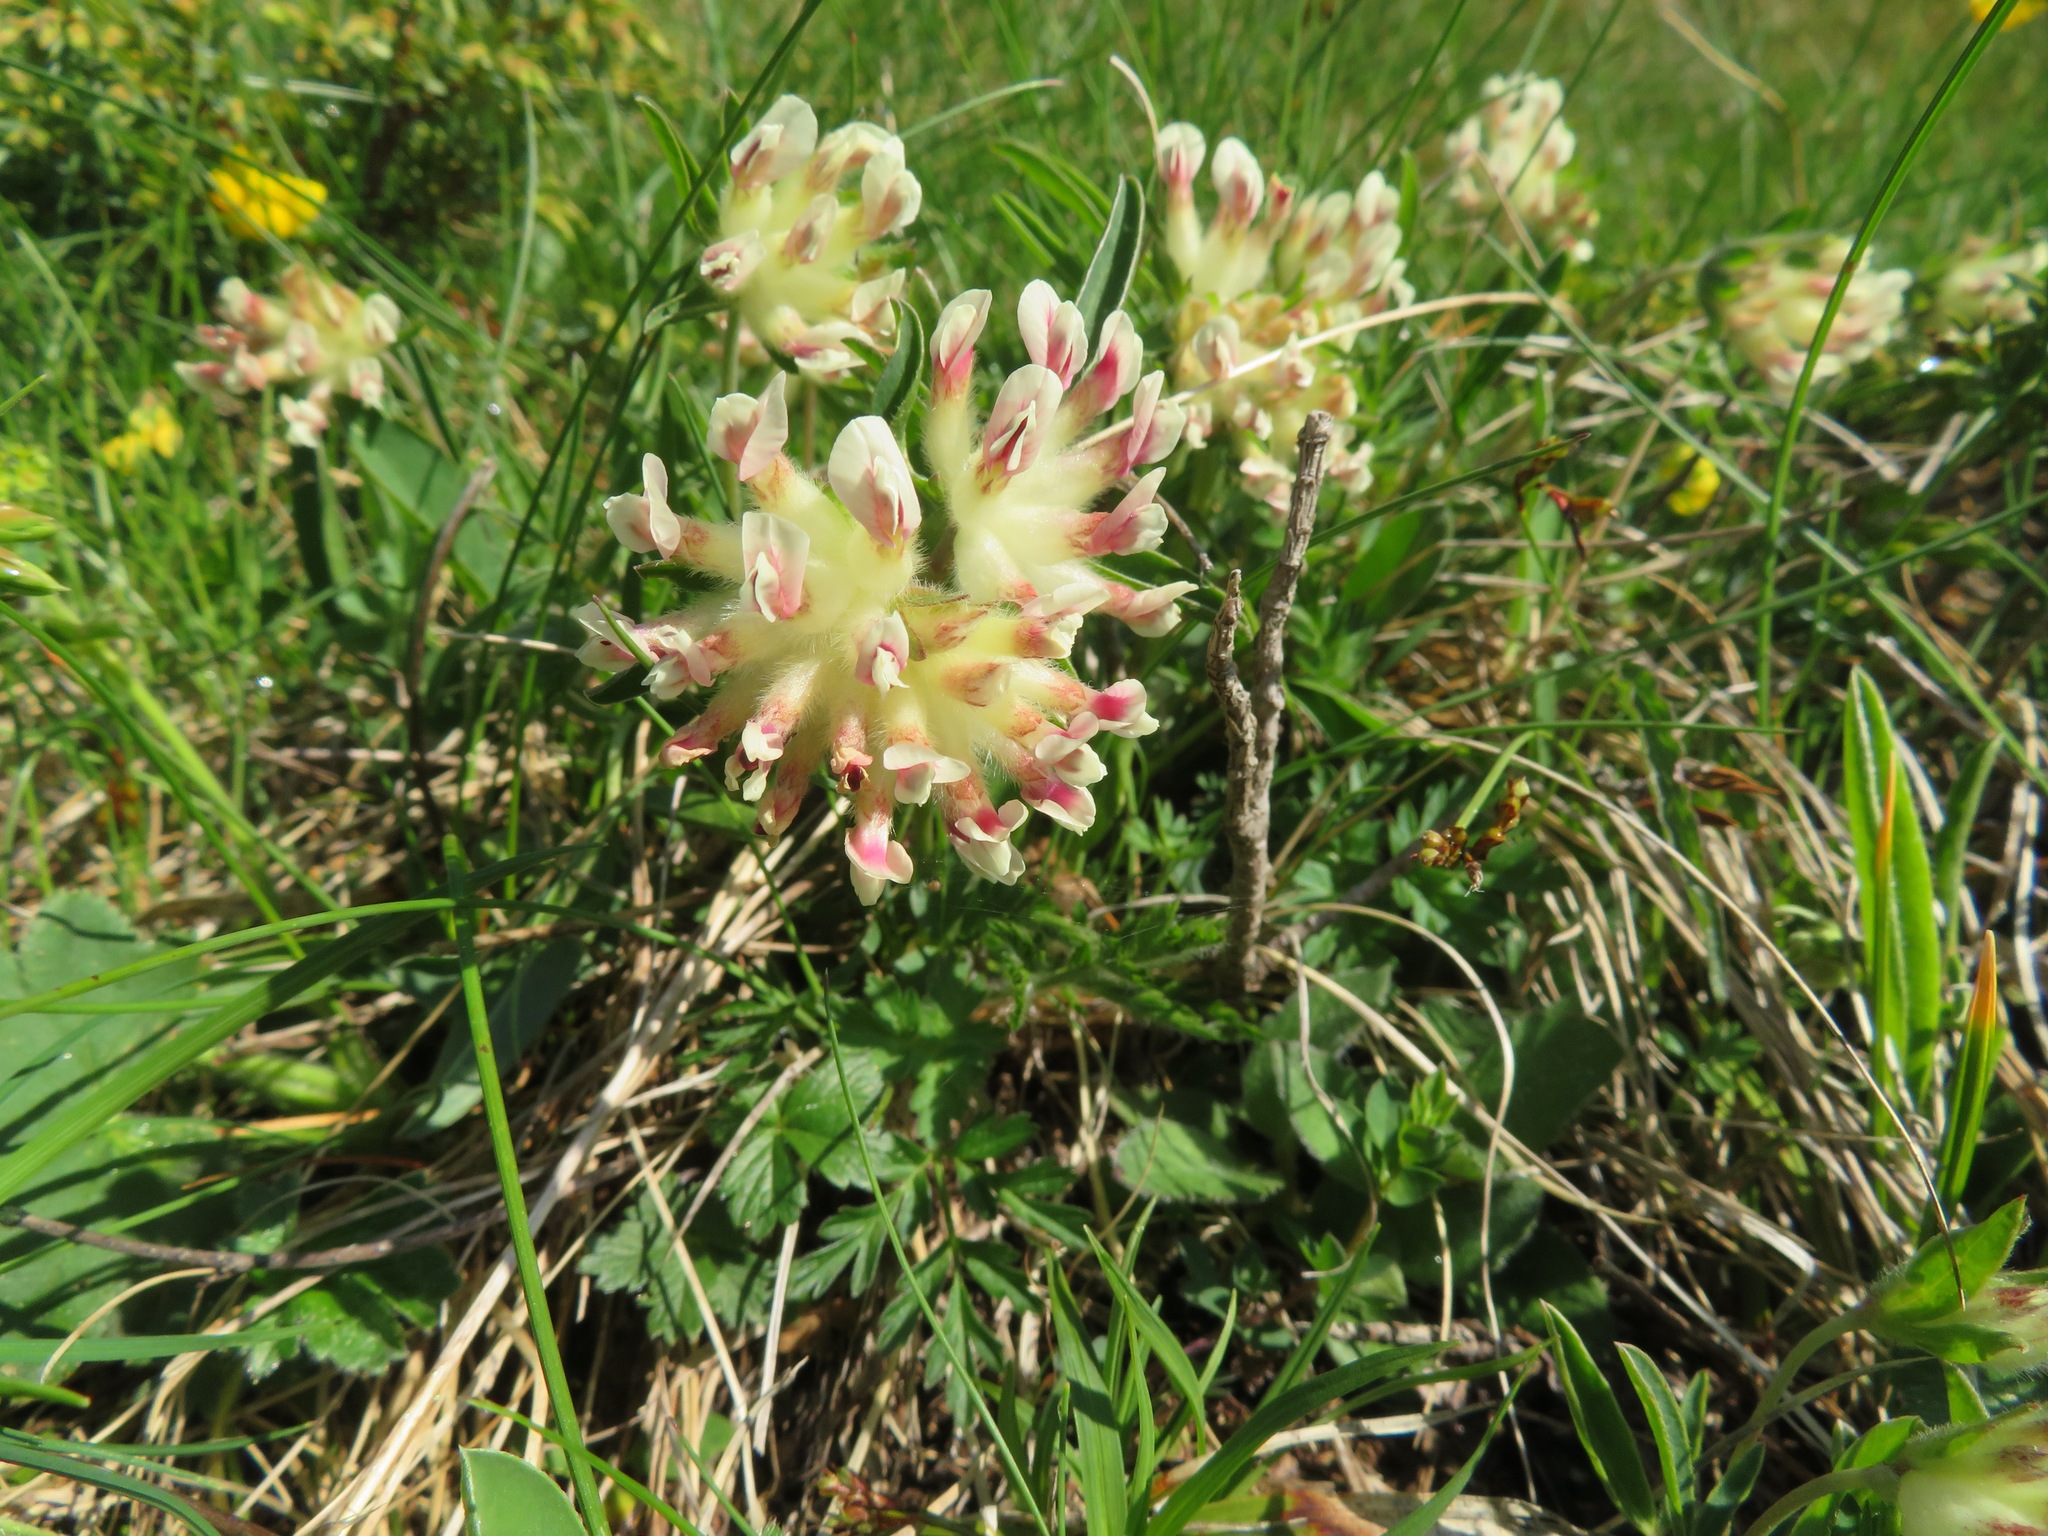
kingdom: Plantae
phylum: Tracheophyta
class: Magnoliopsida
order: Fabales
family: Fabaceae
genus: Anthyllis
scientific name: Anthyllis vulneraria
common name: Kidney vetch
